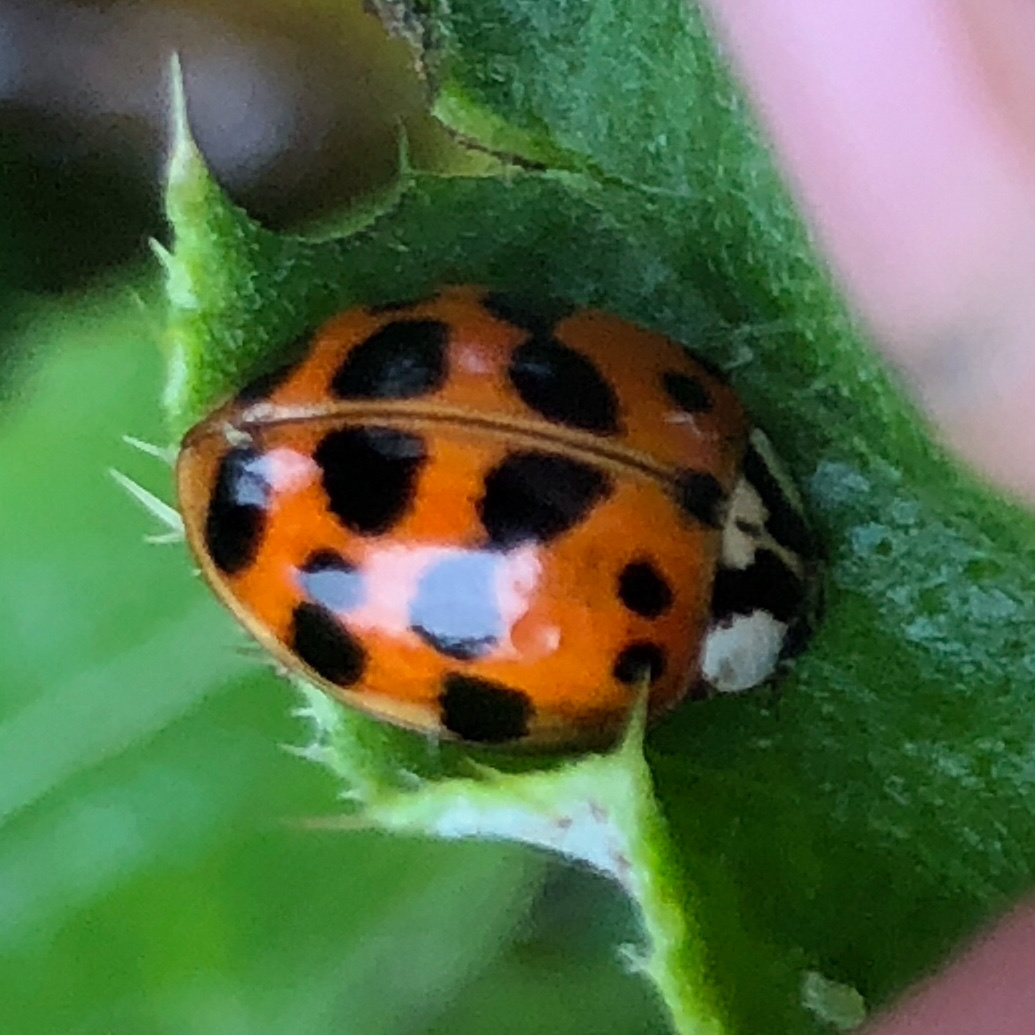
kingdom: Animalia
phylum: Arthropoda
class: Insecta
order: Coleoptera
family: Coccinellidae
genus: Harmonia
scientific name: Harmonia axyridis
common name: Harlequin ladybird
